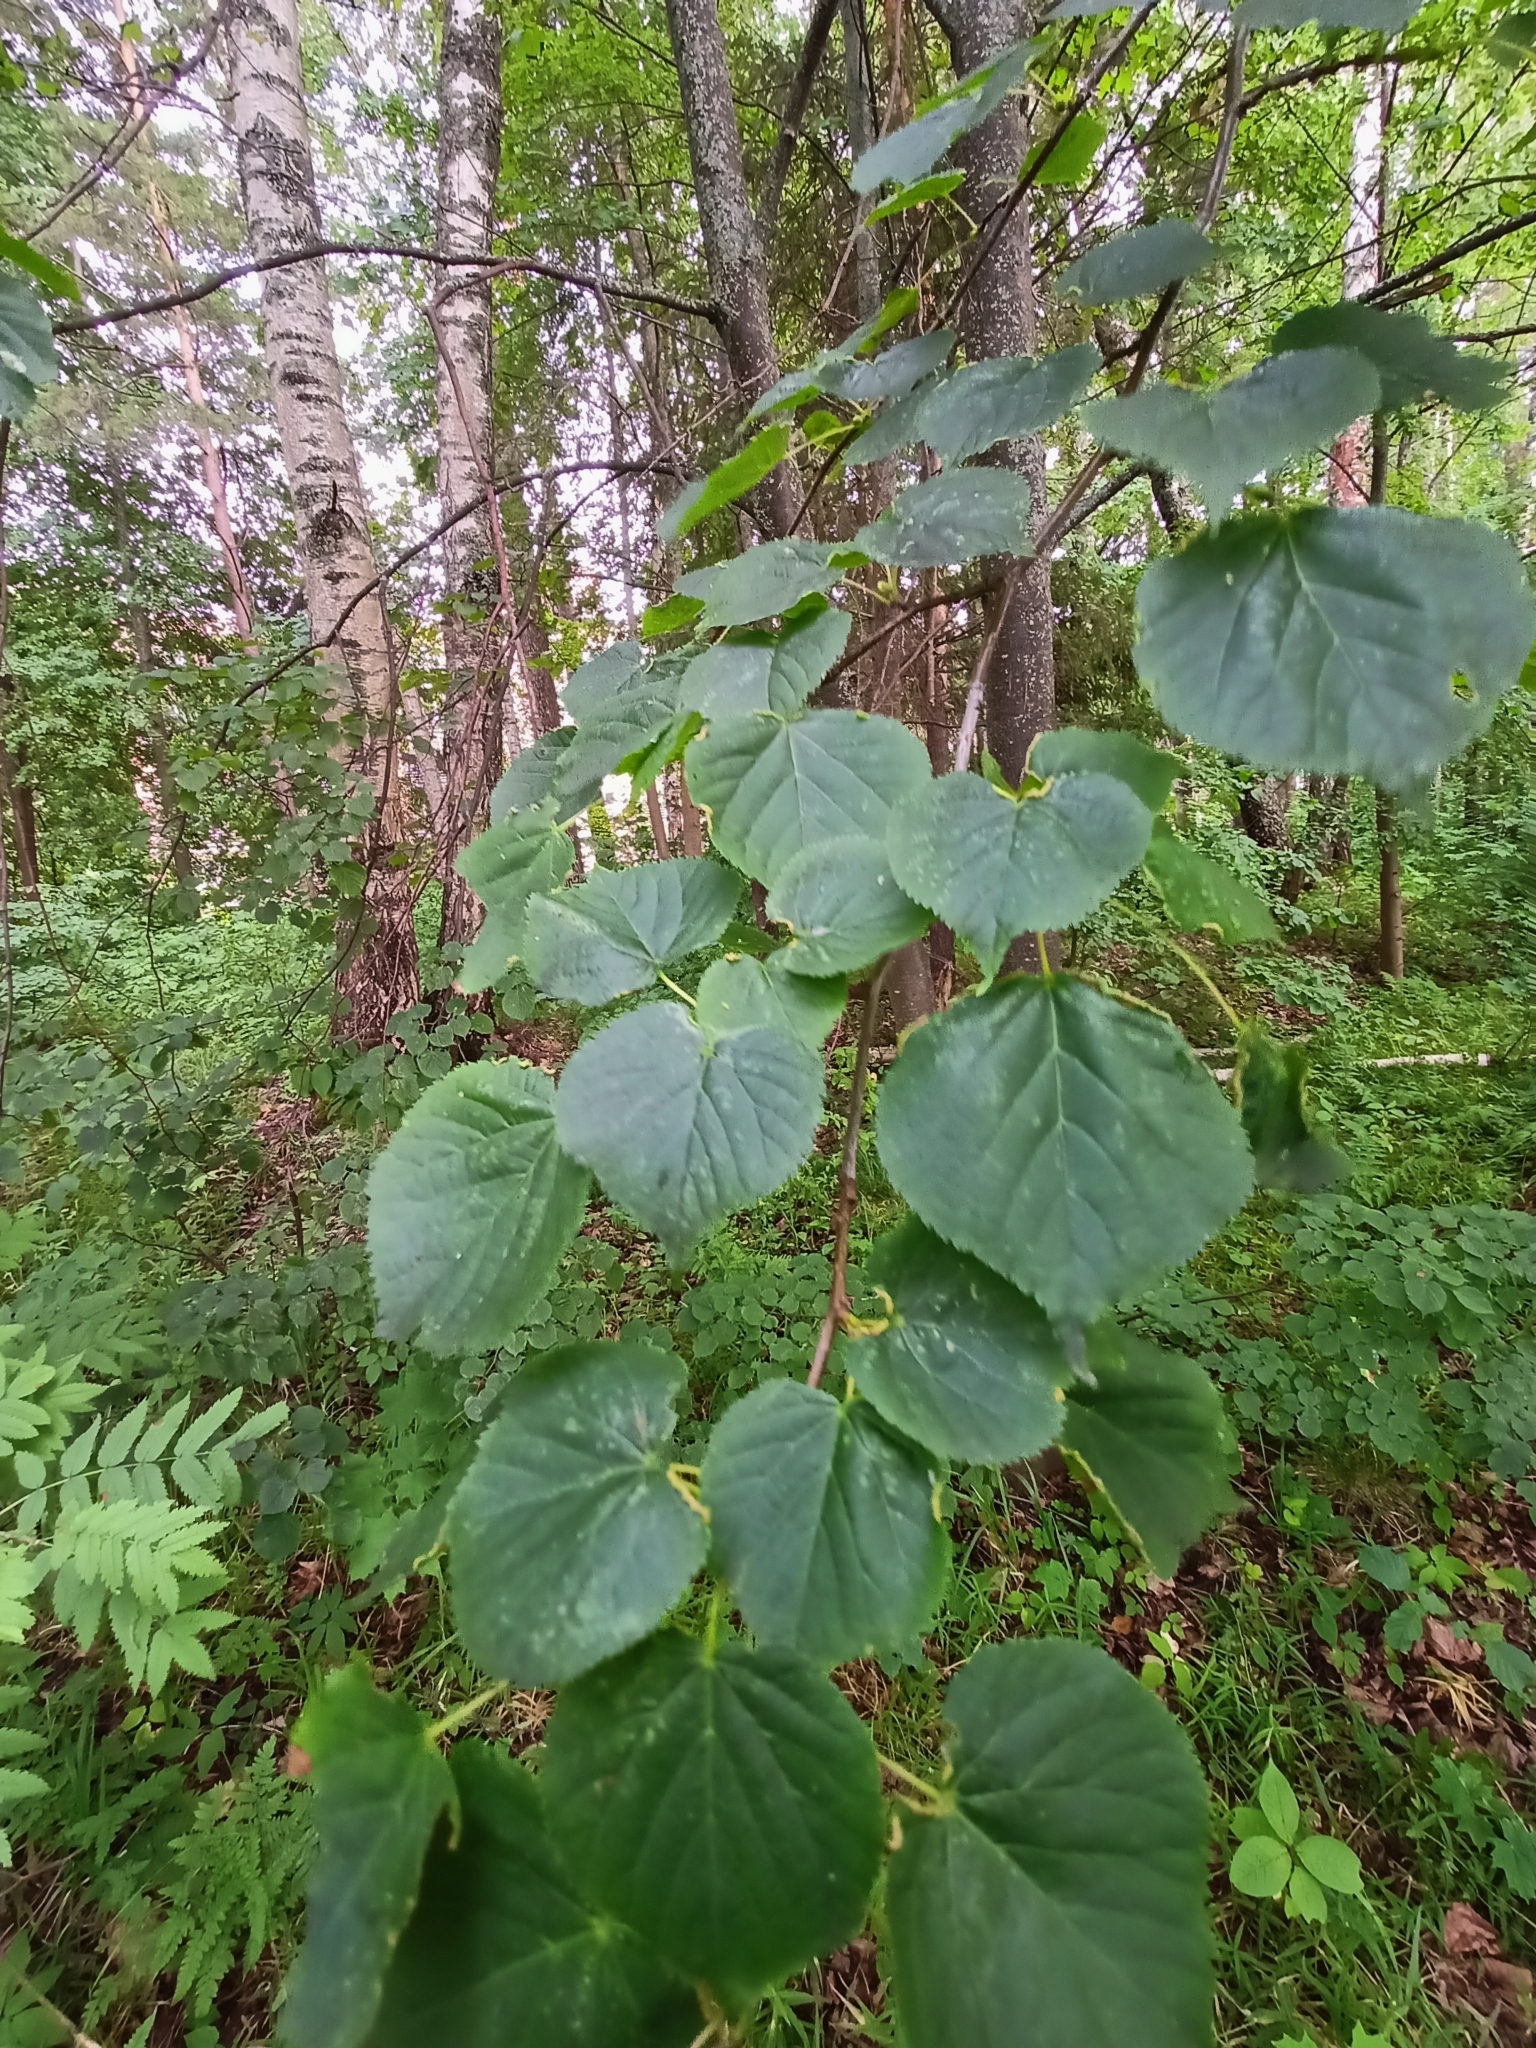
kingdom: Plantae
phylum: Tracheophyta
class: Magnoliopsida
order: Malvales
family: Malvaceae
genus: Tilia
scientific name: Tilia cordata
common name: Small-leaved lime
